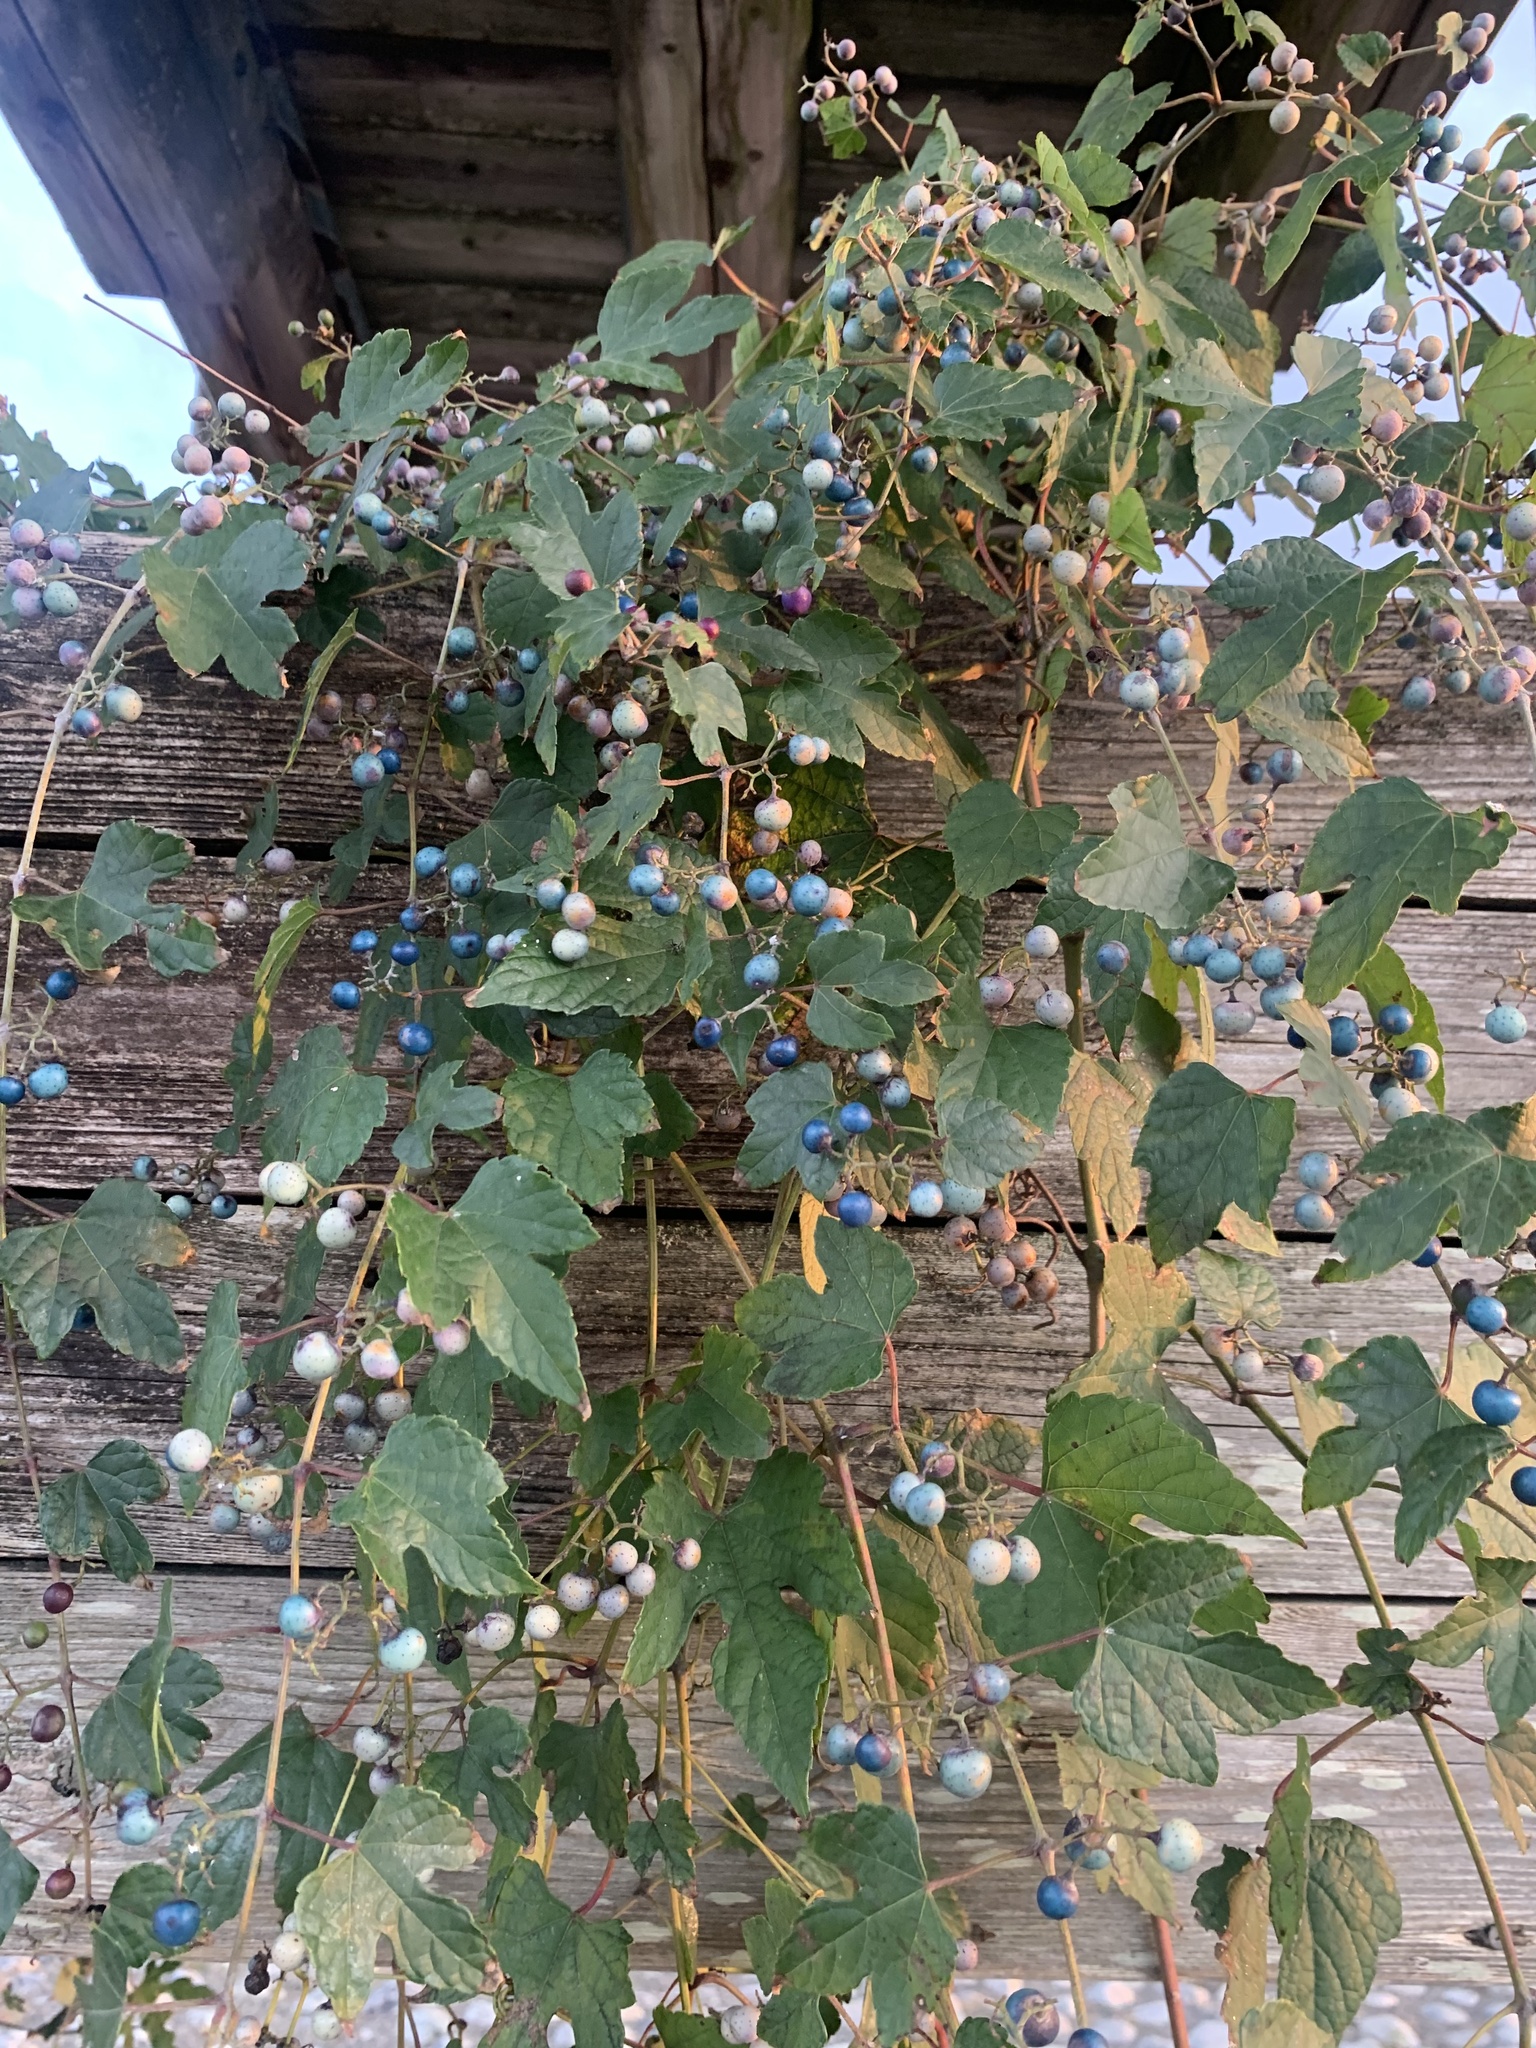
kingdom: Plantae
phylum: Tracheophyta
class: Magnoliopsida
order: Vitales
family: Vitaceae
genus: Ampelopsis
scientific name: Ampelopsis glandulosa
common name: Amur peppervine
